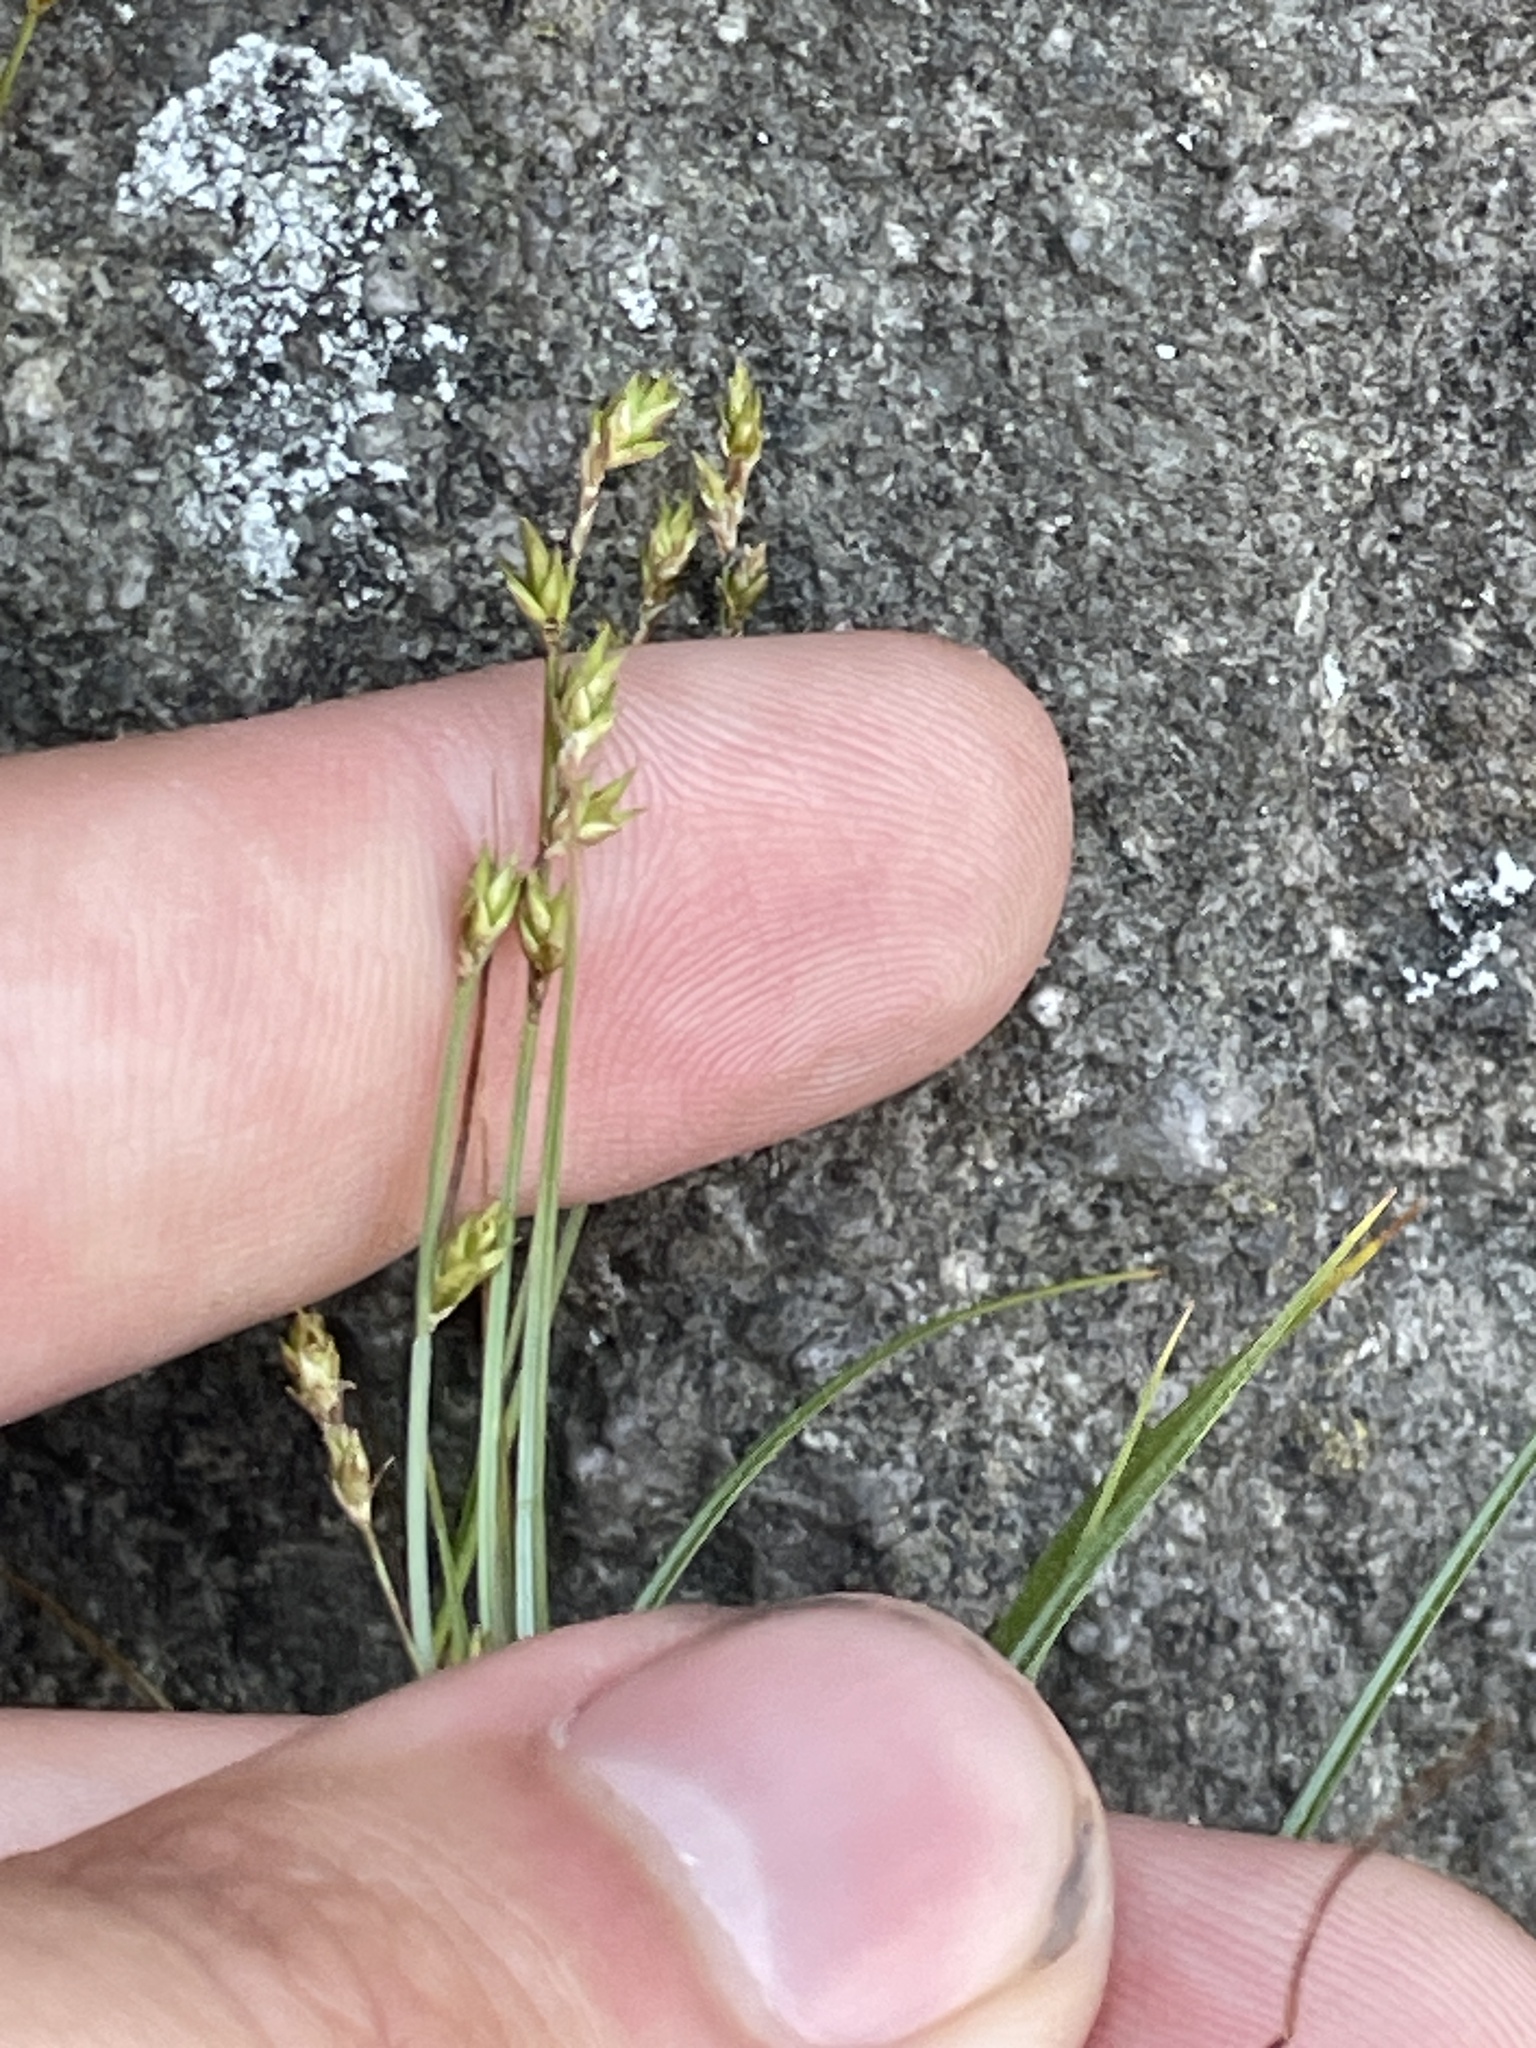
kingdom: Plantae
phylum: Tracheophyta
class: Liliopsida
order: Poales
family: Cyperaceae
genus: Carex
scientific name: Carex brunnescens
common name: Brown sedge
